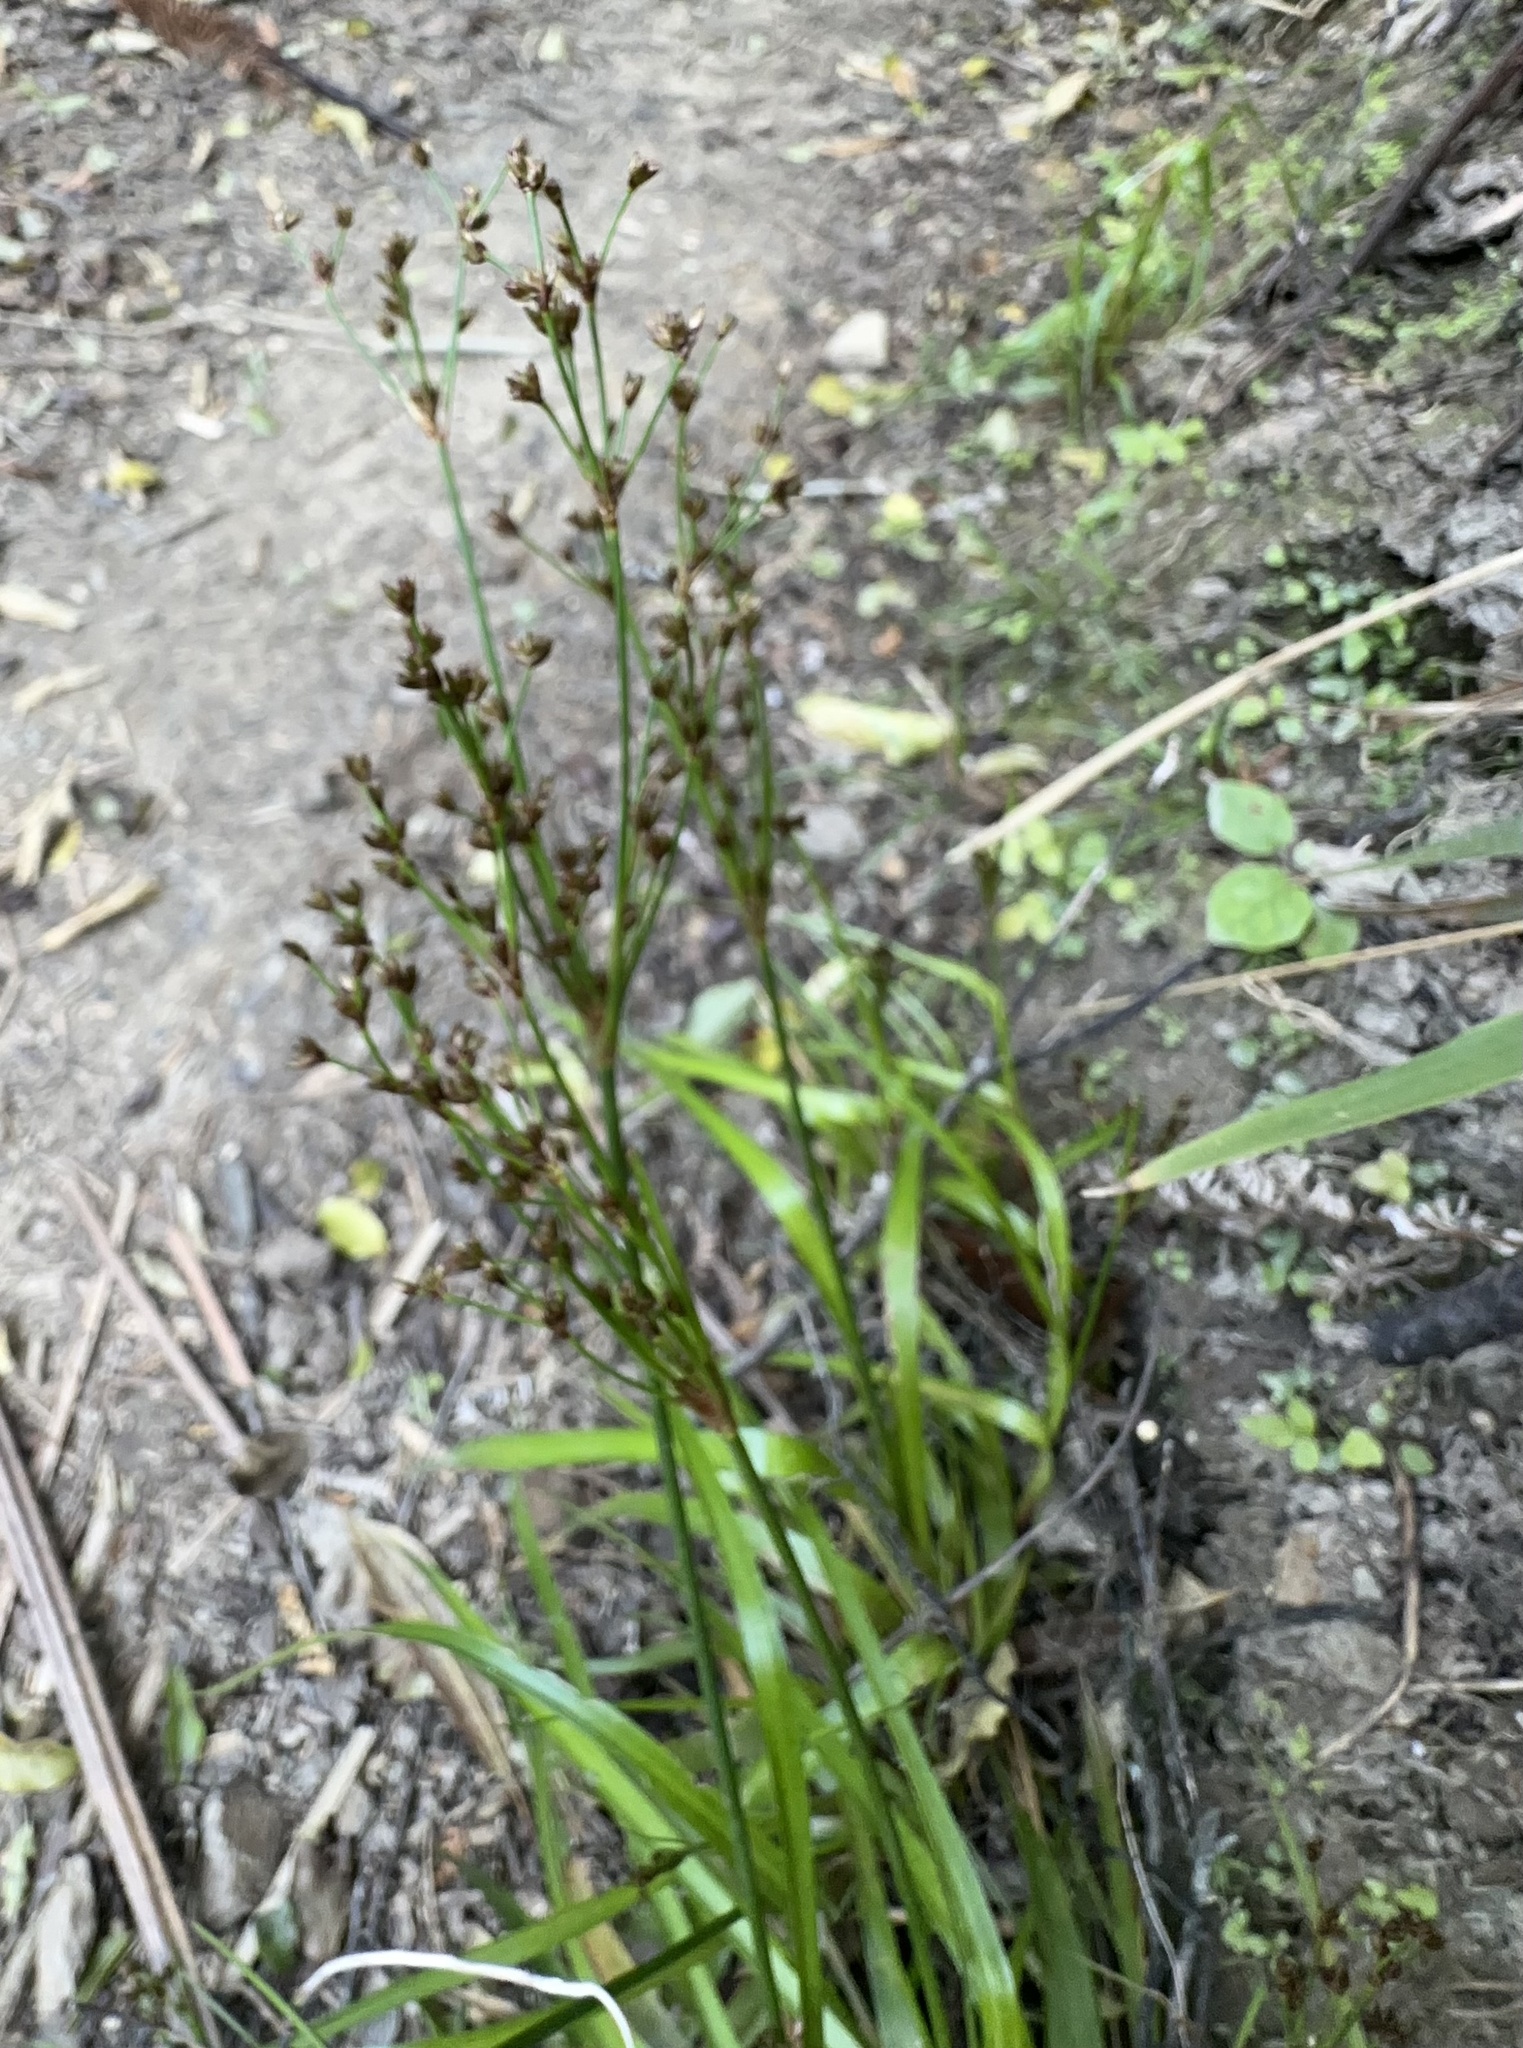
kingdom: Plantae
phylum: Tracheophyta
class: Liliopsida
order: Poales
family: Juncaceae
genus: Juncus
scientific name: Juncus planifolius
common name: Broadleaf rush
